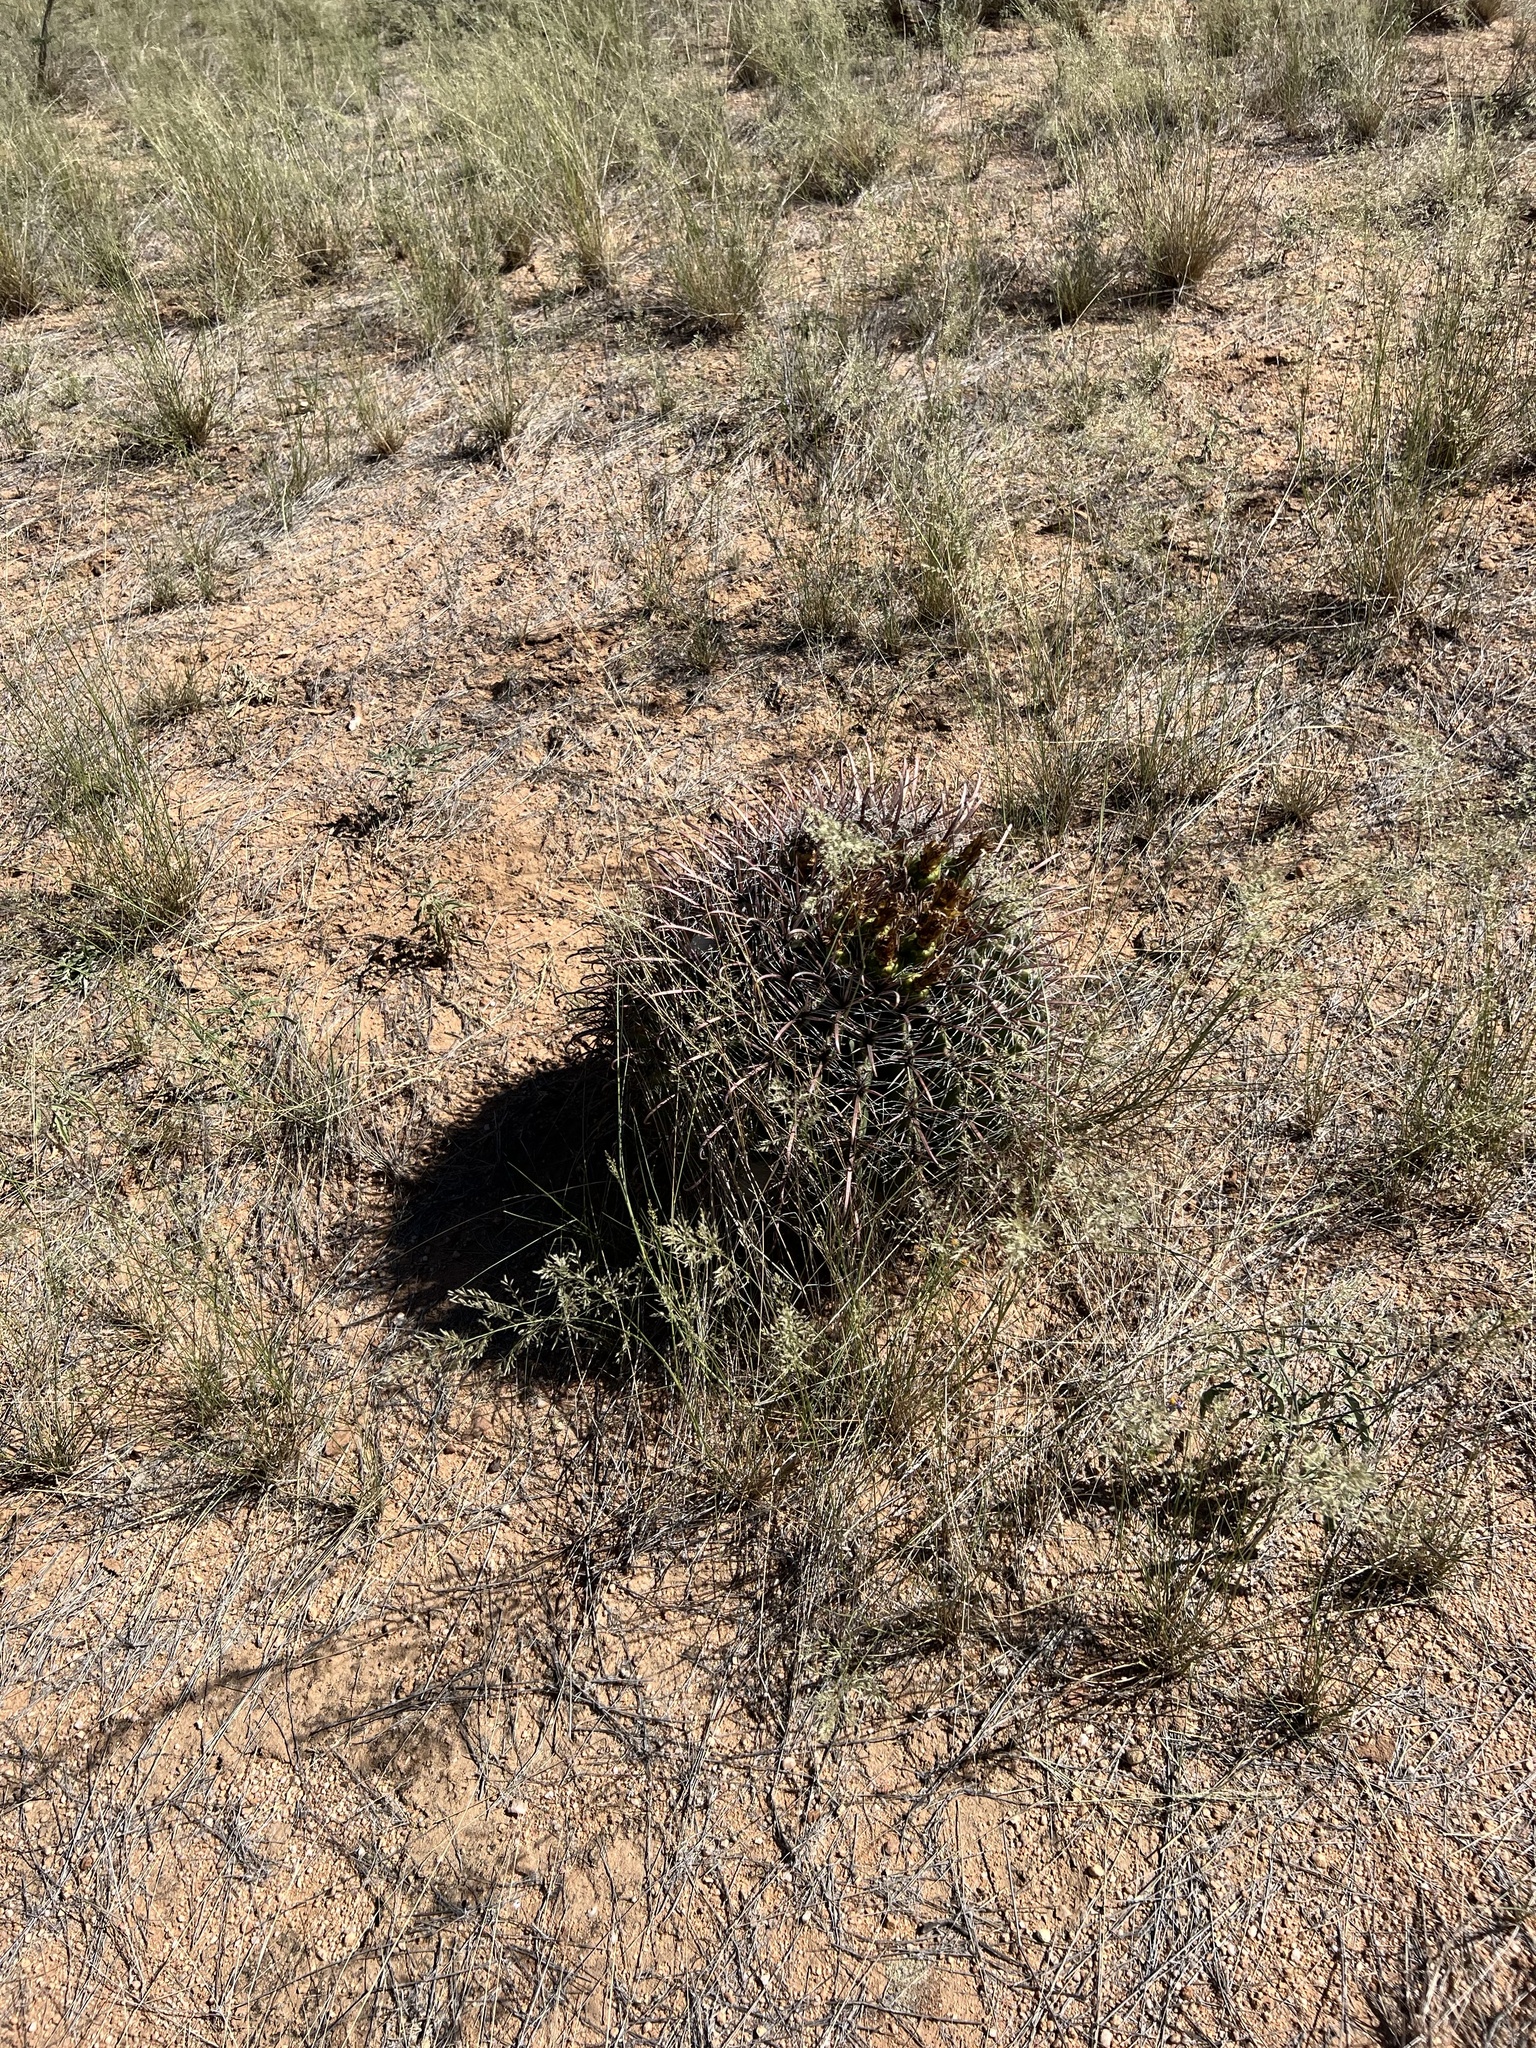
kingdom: Plantae
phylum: Tracheophyta
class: Magnoliopsida
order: Caryophyllales
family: Cactaceae
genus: Ferocactus
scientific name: Ferocactus wislizeni
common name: Candy barrel cactus
